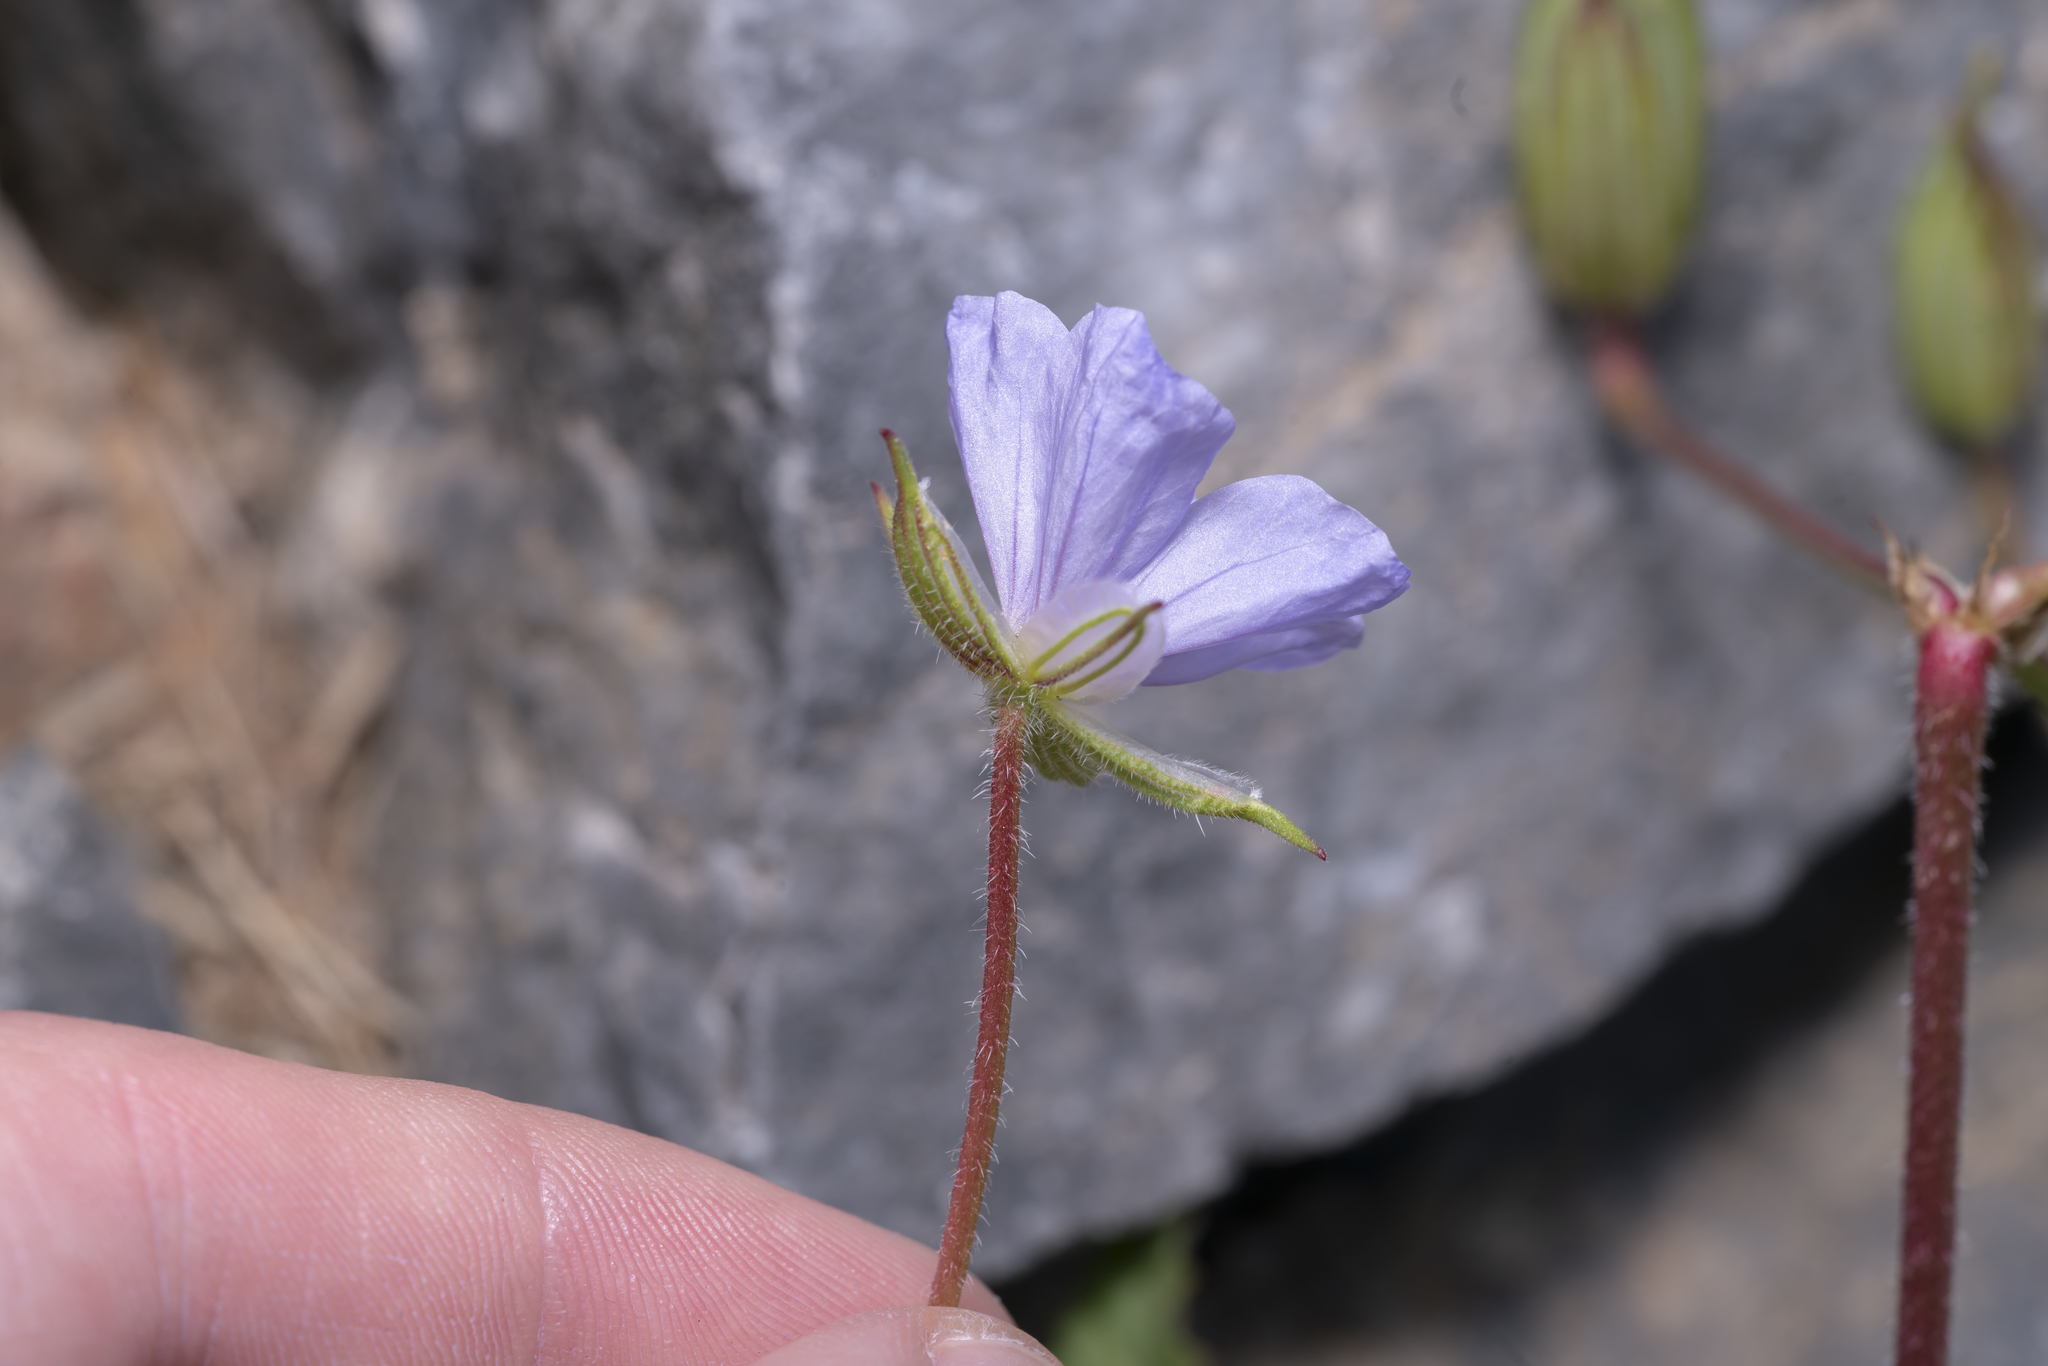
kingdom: Plantae
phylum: Tracheophyta
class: Magnoliopsida
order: Geraniales
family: Geraniaceae
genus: Erodium
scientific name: Erodium gruinum
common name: Iranian stork's bill
